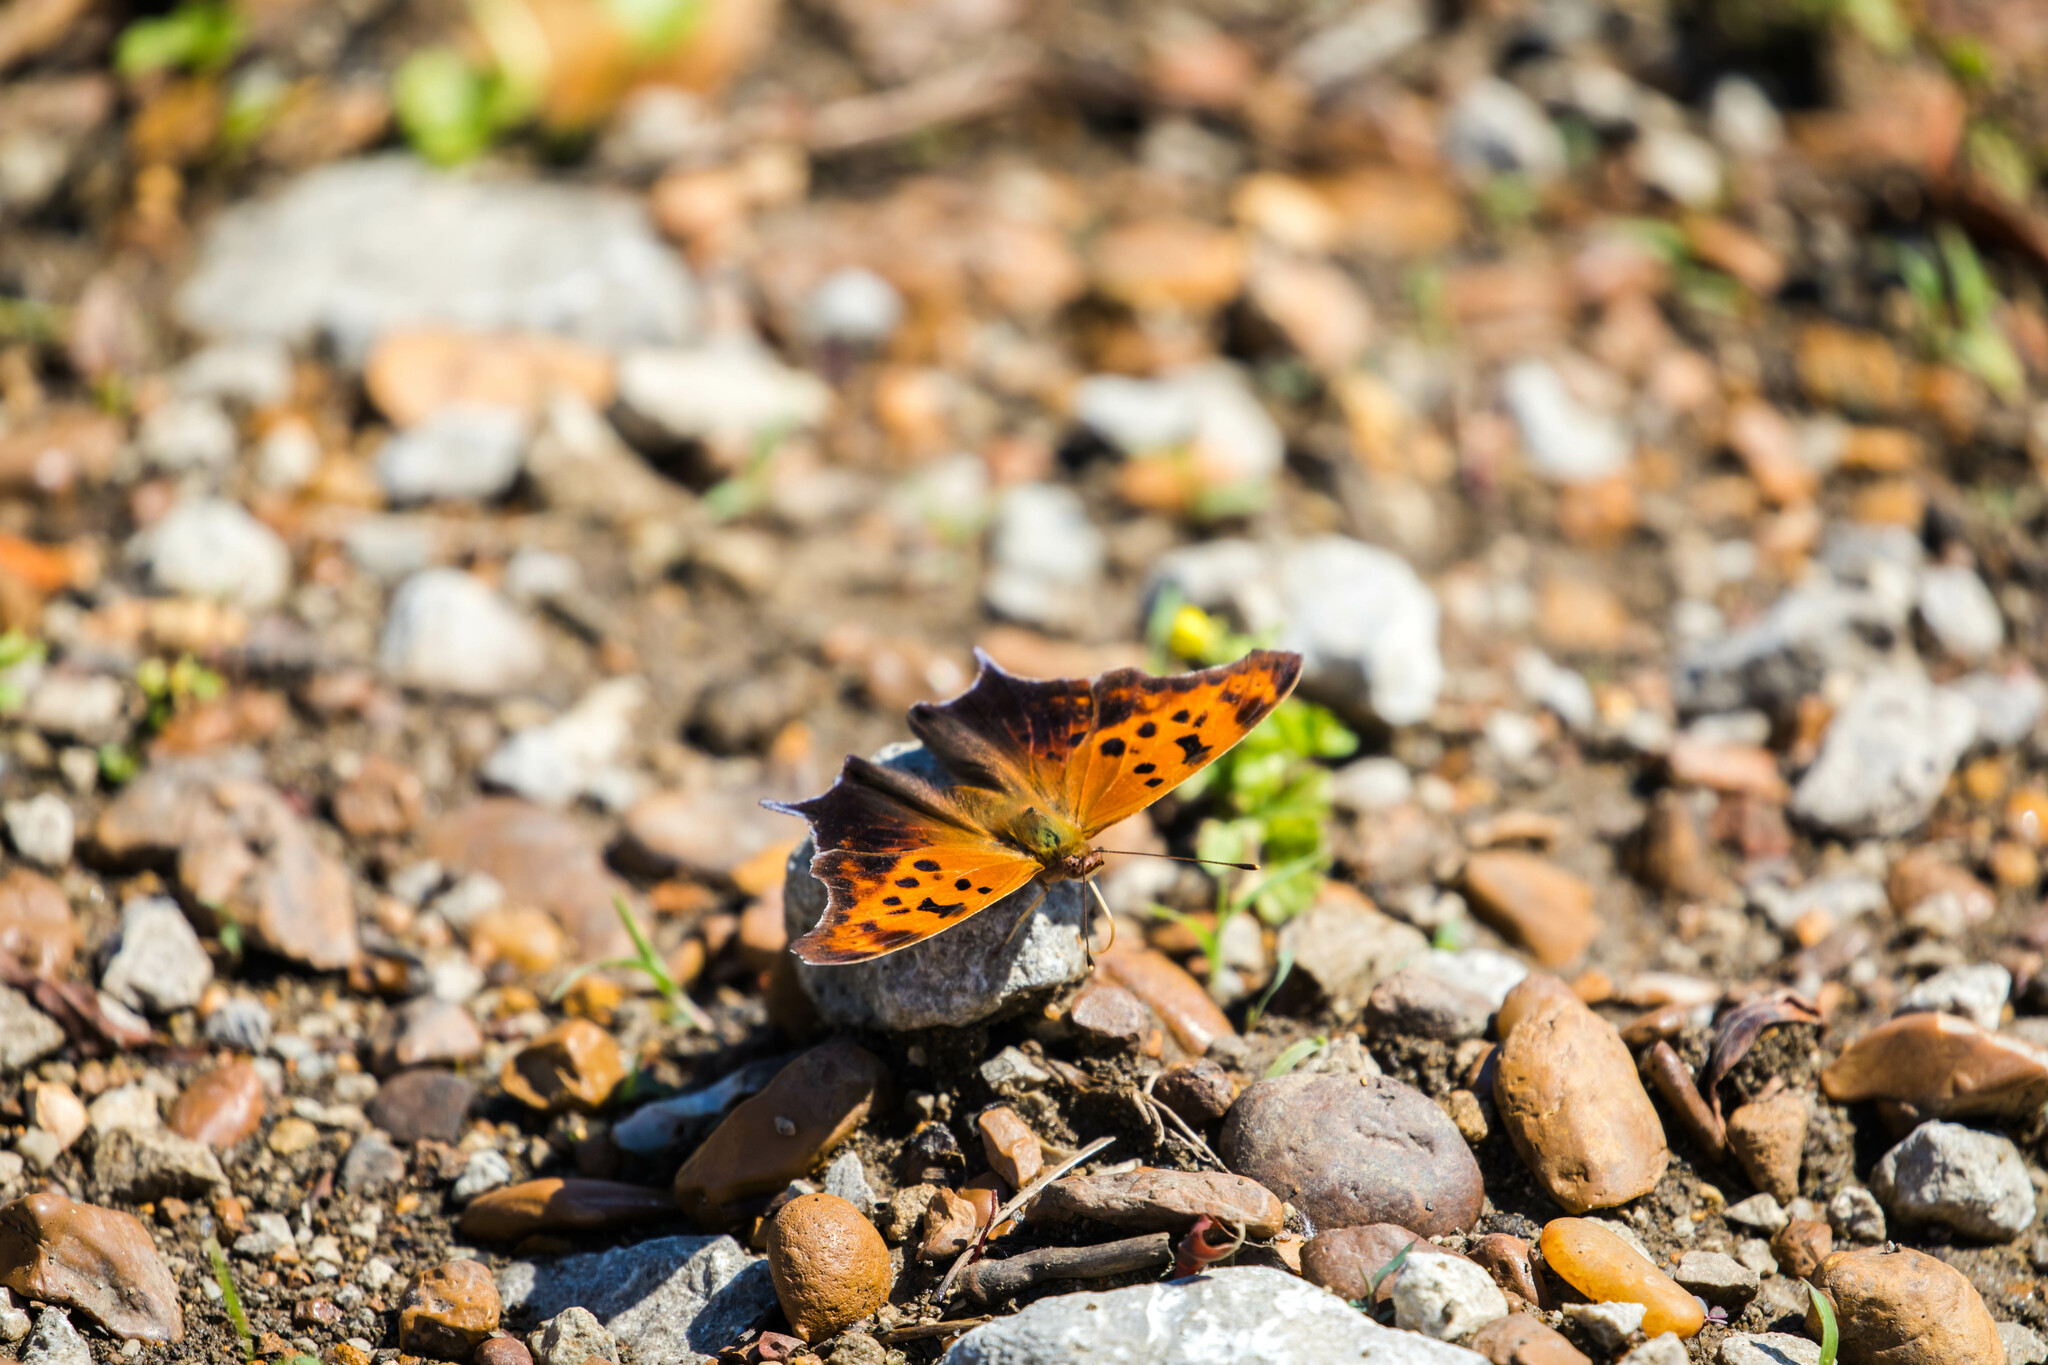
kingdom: Animalia
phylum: Arthropoda
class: Insecta
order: Lepidoptera
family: Nymphalidae
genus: Polygonia
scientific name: Polygonia interrogationis
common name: Question mark
